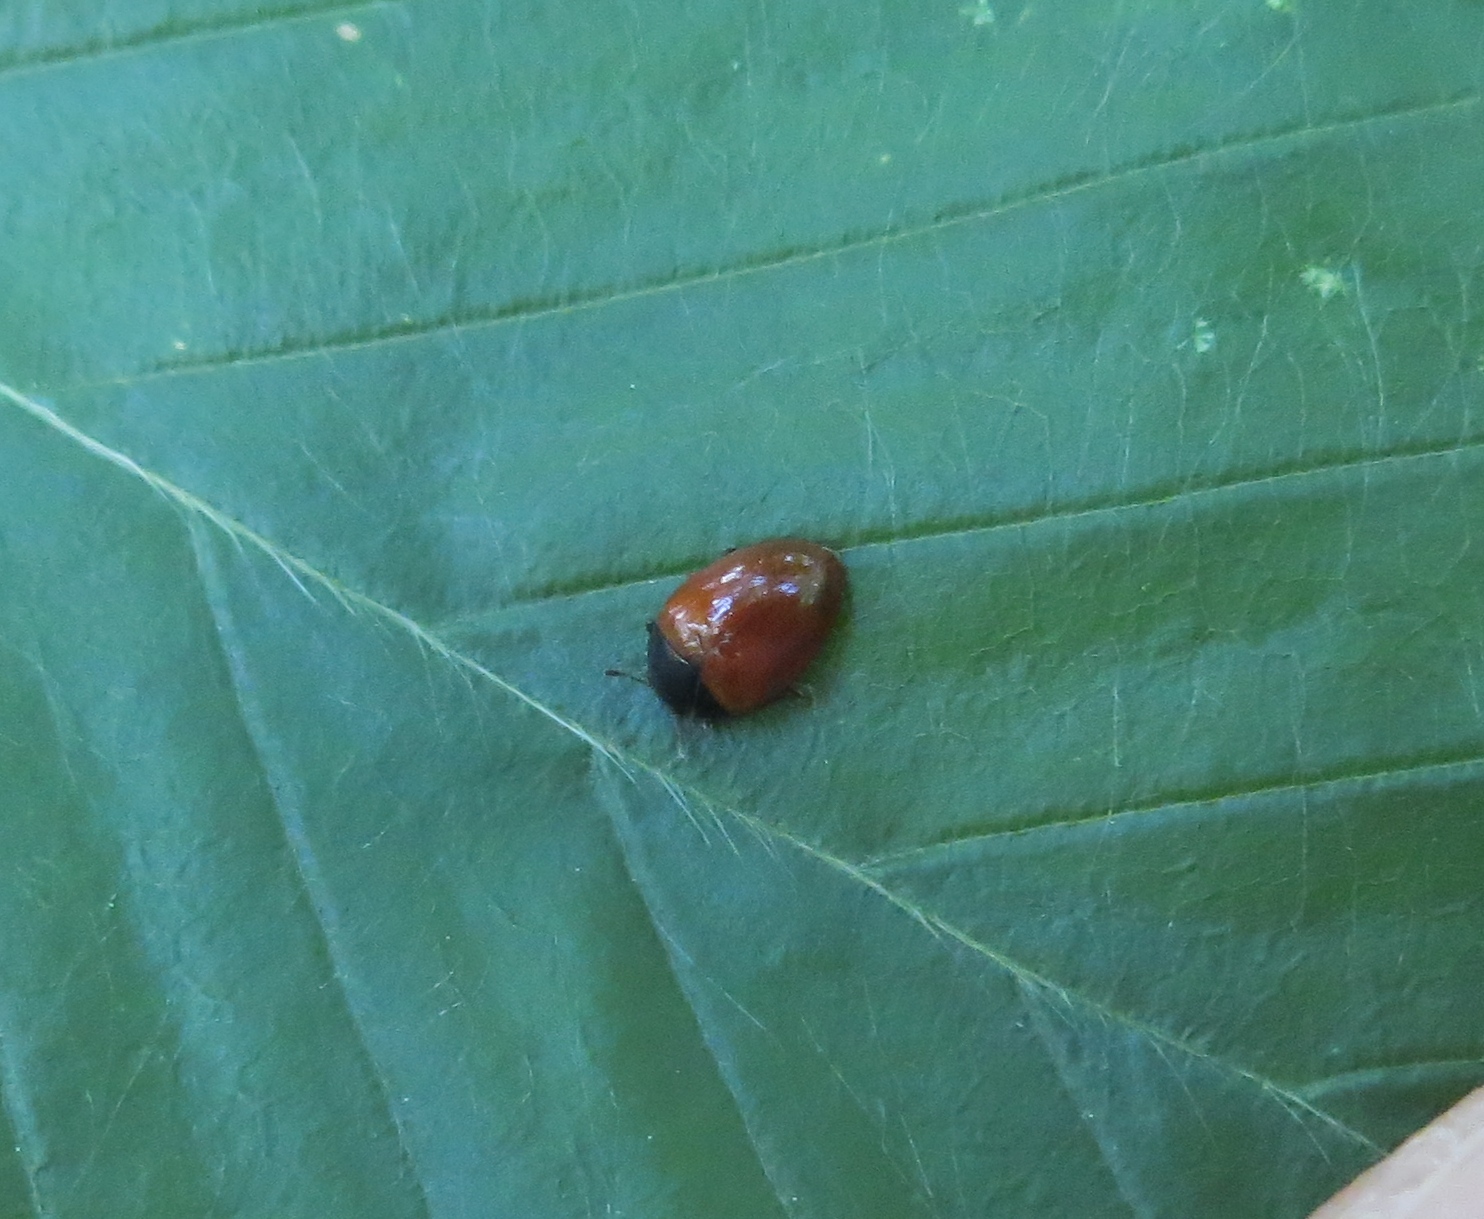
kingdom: Animalia
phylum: Arthropoda
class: Insecta
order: Coleoptera
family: Erotylidae
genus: Tritoma
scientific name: Tritoma sanguinipennis
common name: Red-winged tritoma
